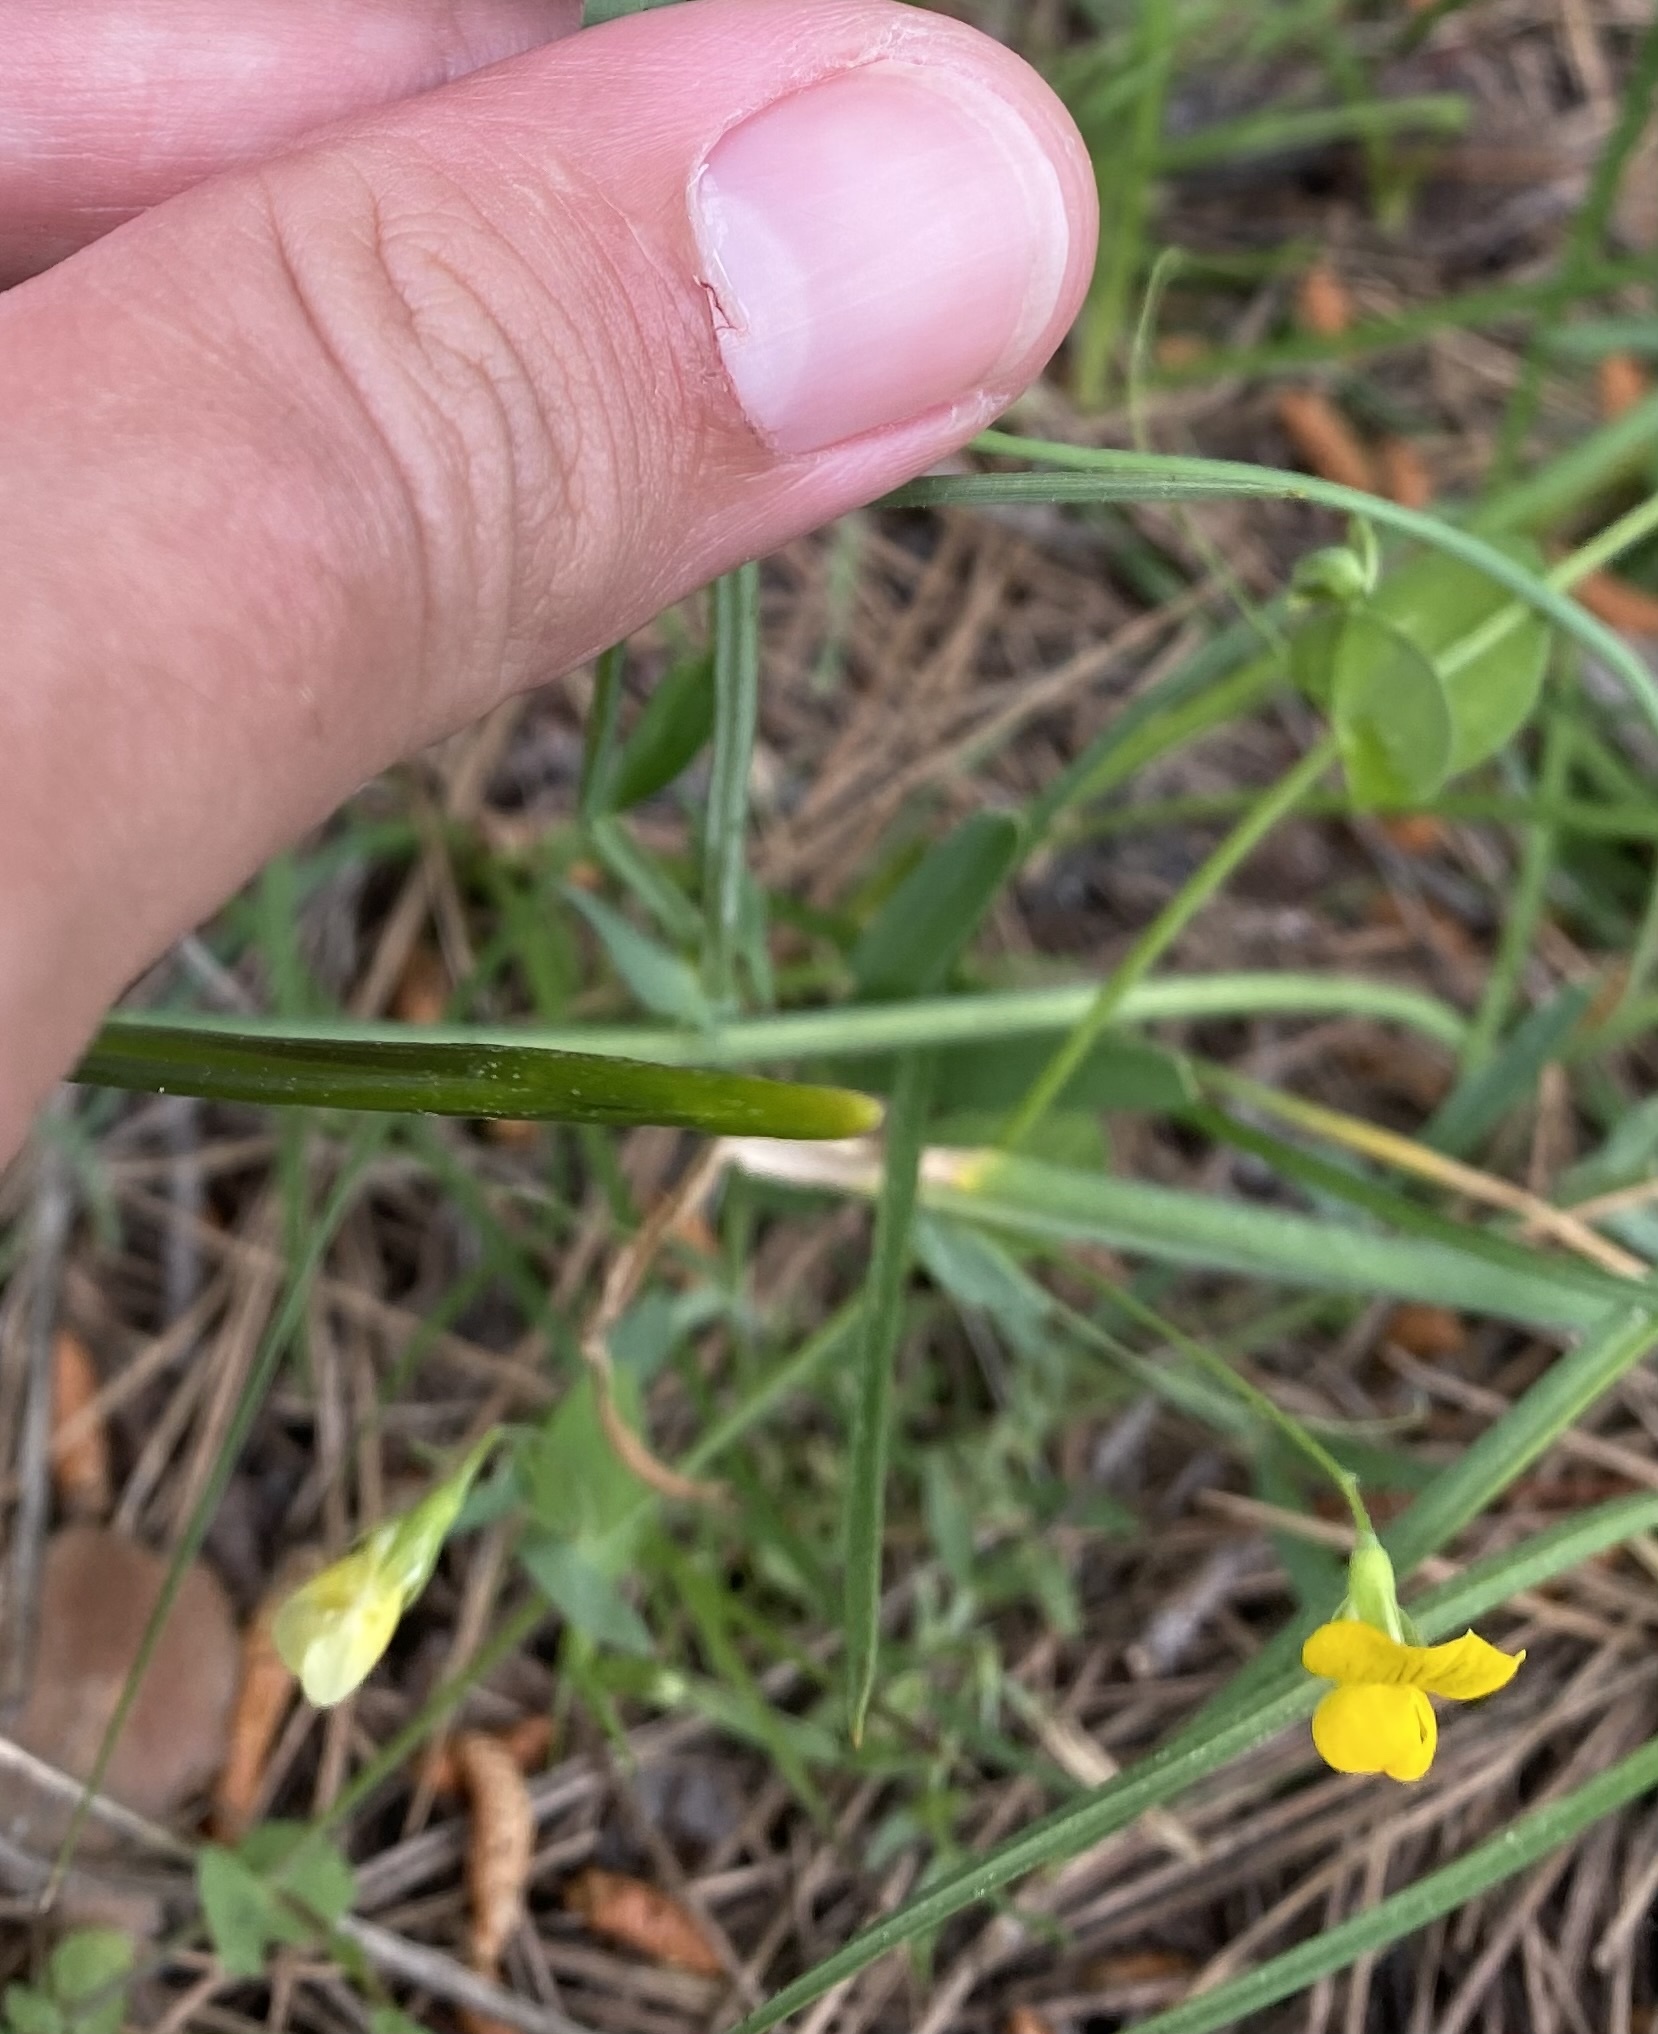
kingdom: Plantae
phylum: Tracheophyta
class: Magnoliopsida
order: Fabales
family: Fabaceae
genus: Lathyrus
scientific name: Lathyrus aphaca
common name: Yellow vetchling
